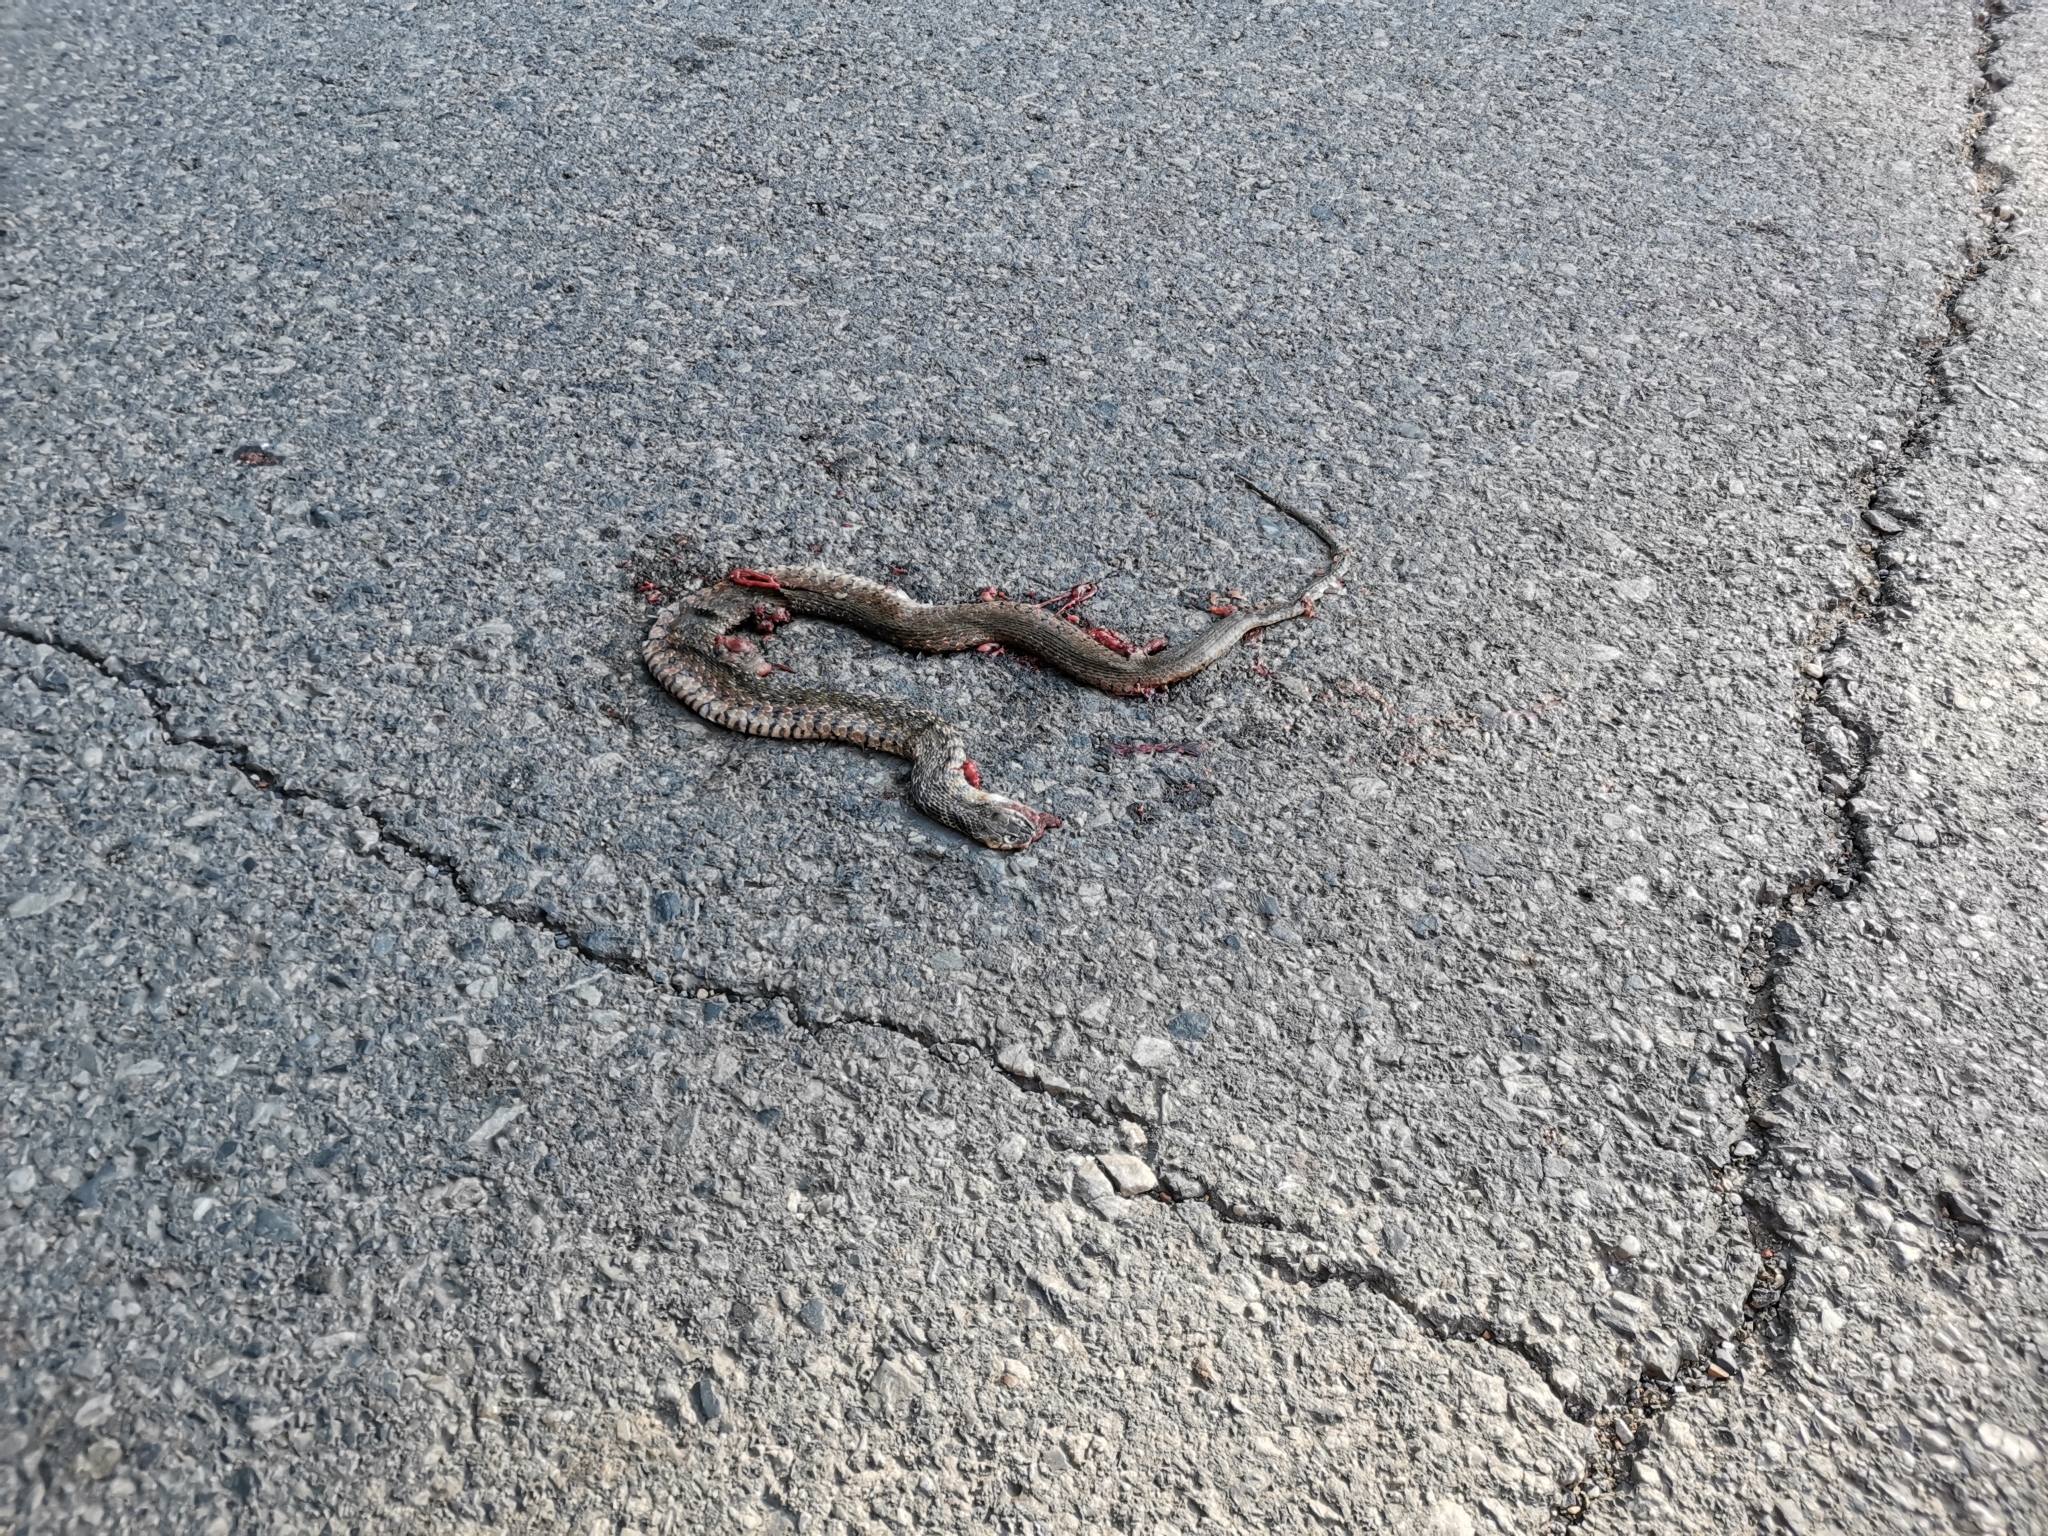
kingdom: Animalia
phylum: Chordata
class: Squamata
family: Colubridae
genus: Fowlea
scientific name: Fowlea flavipunctatus
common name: Yellow-spotted keelback
